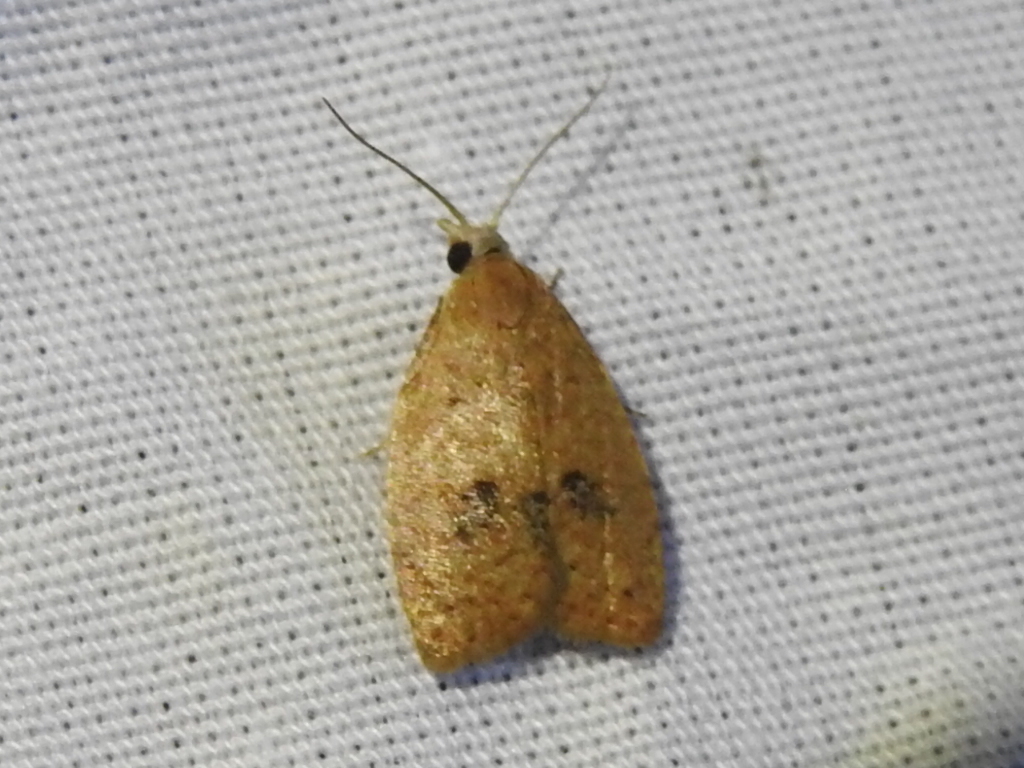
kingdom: Animalia
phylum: Arthropoda
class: Insecta
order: Lepidoptera
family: Tortricidae
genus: Sparganothoides
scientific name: Sparganothoides lentiginosana
